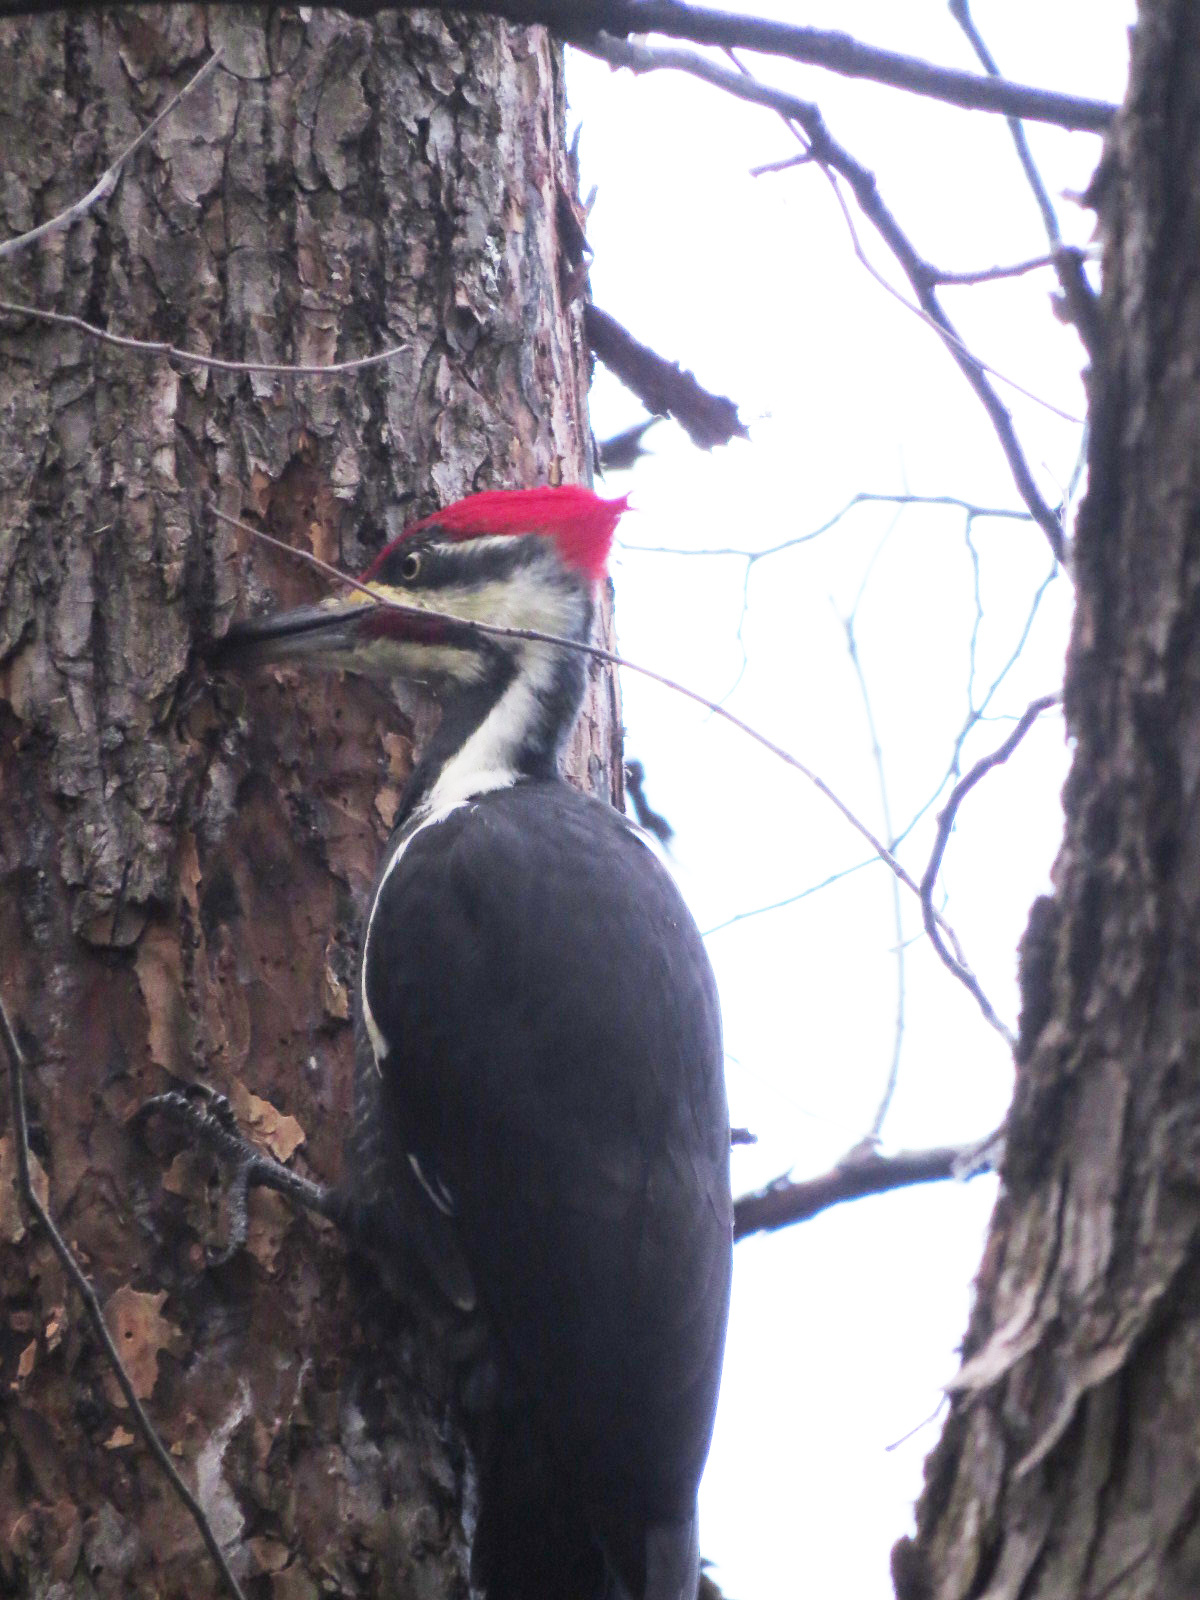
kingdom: Animalia
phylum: Chordata
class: Aves
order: Piciformes
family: Picidae
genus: Dryocopus
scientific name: Dryocopus pileatus
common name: Pileated woodpecker
